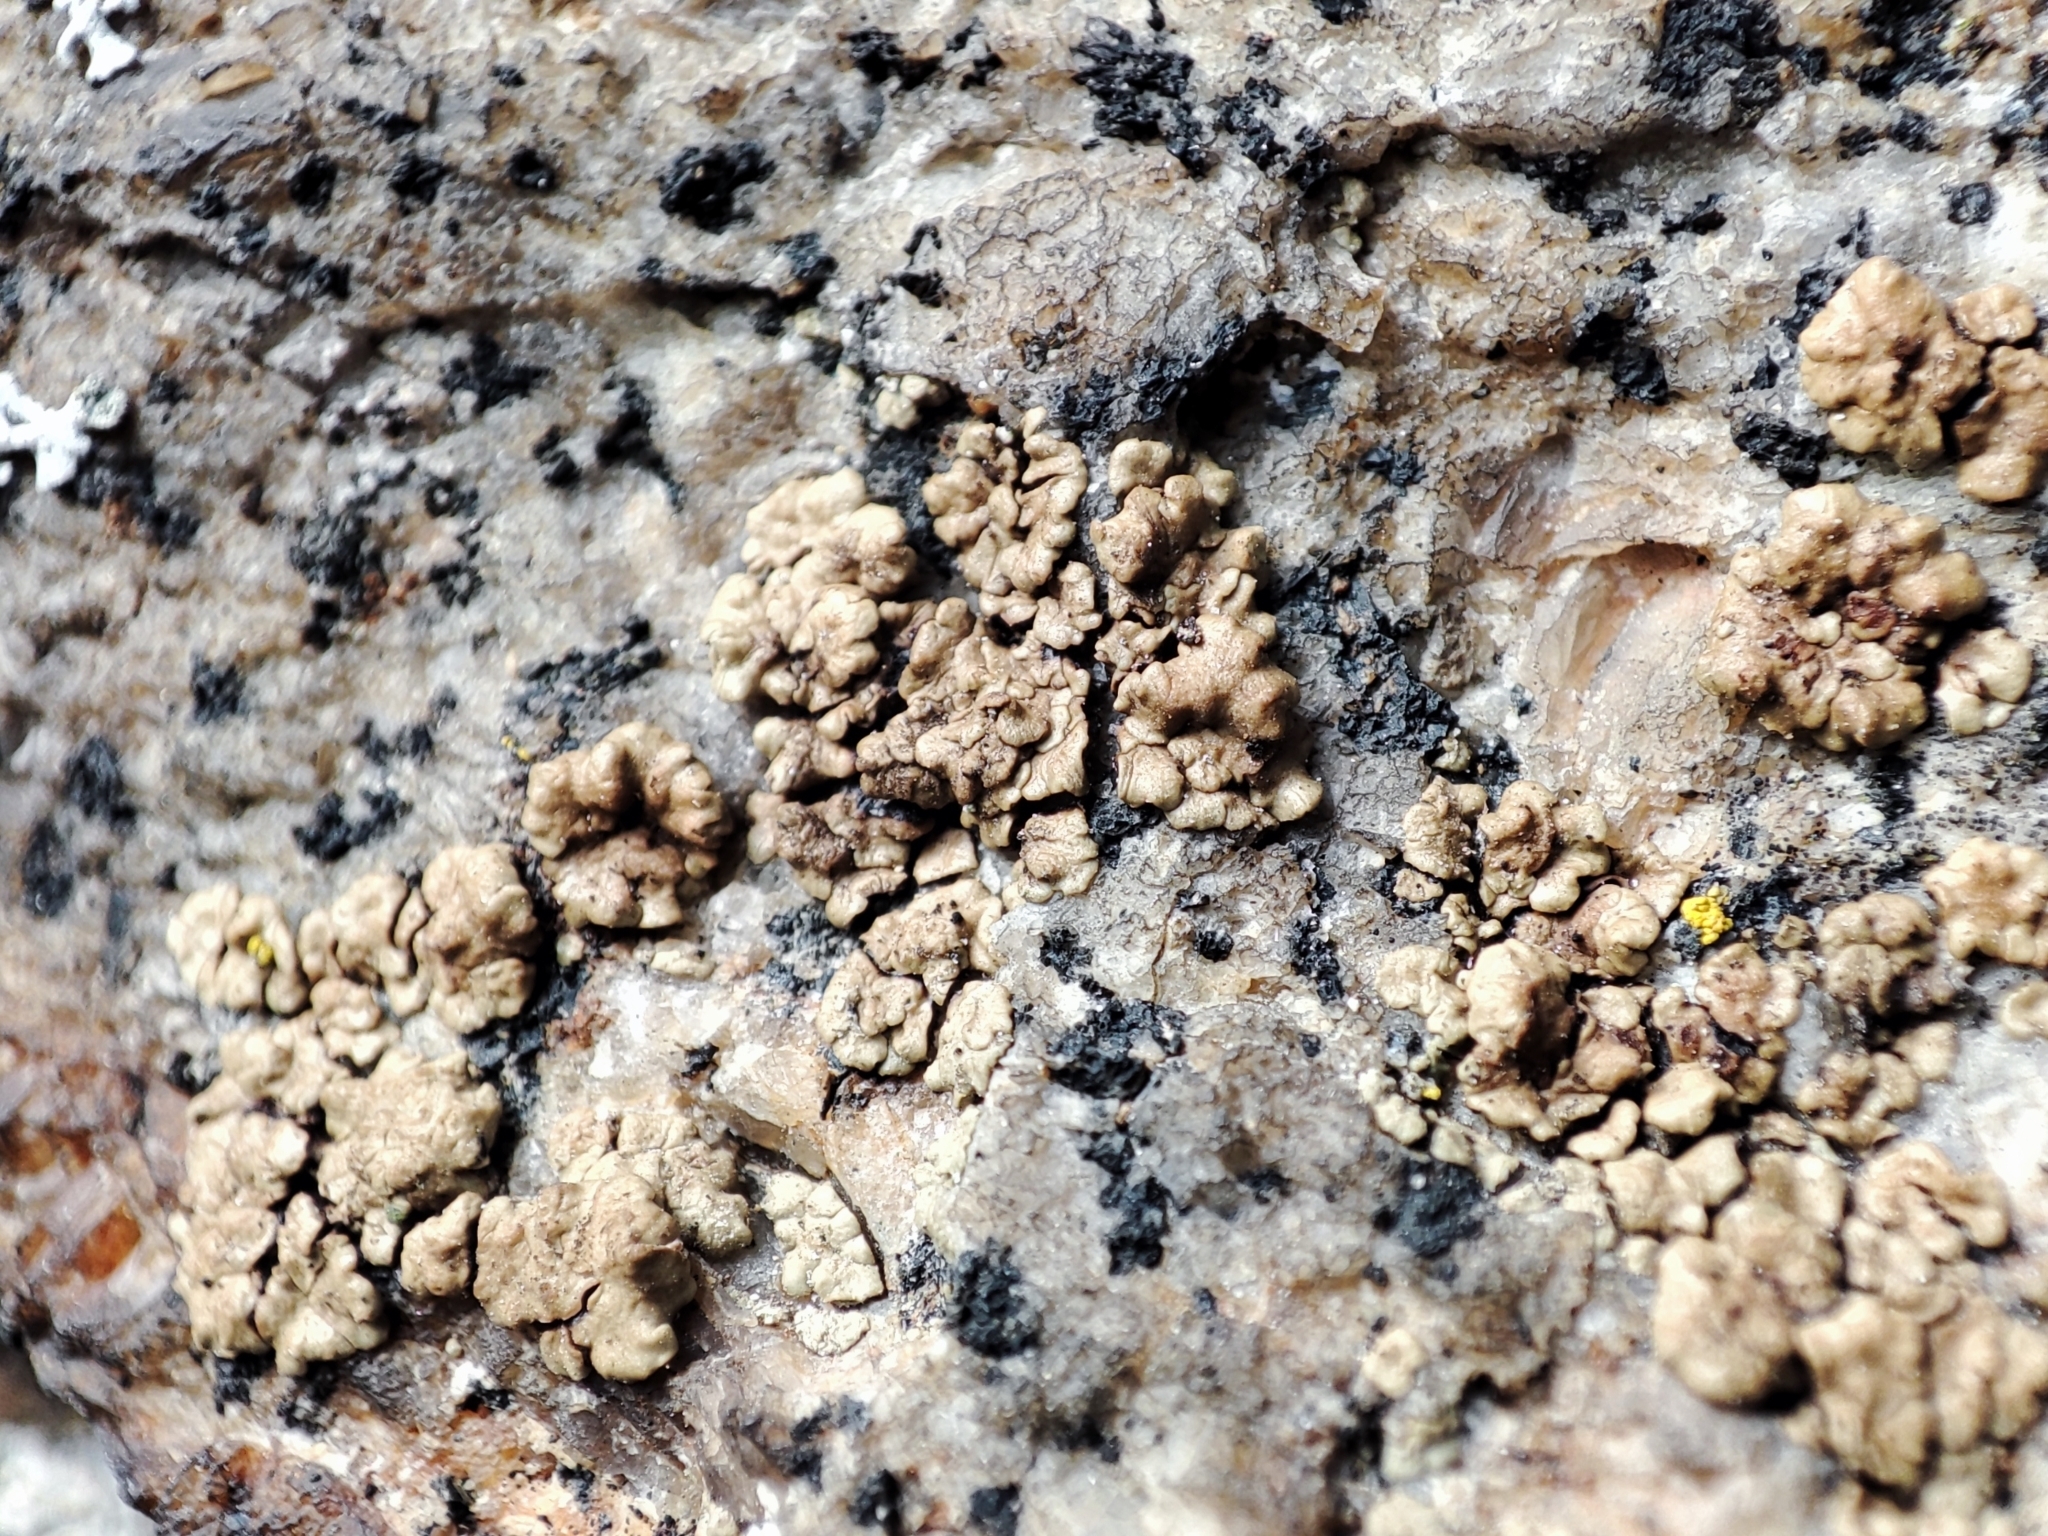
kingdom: Fungi
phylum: Ascomycota
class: Lecanoromycetes
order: Acarosporales
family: Acarosporaceae
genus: Acarospora
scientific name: Acarospora fuscata
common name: Brown cobblestone lichen
